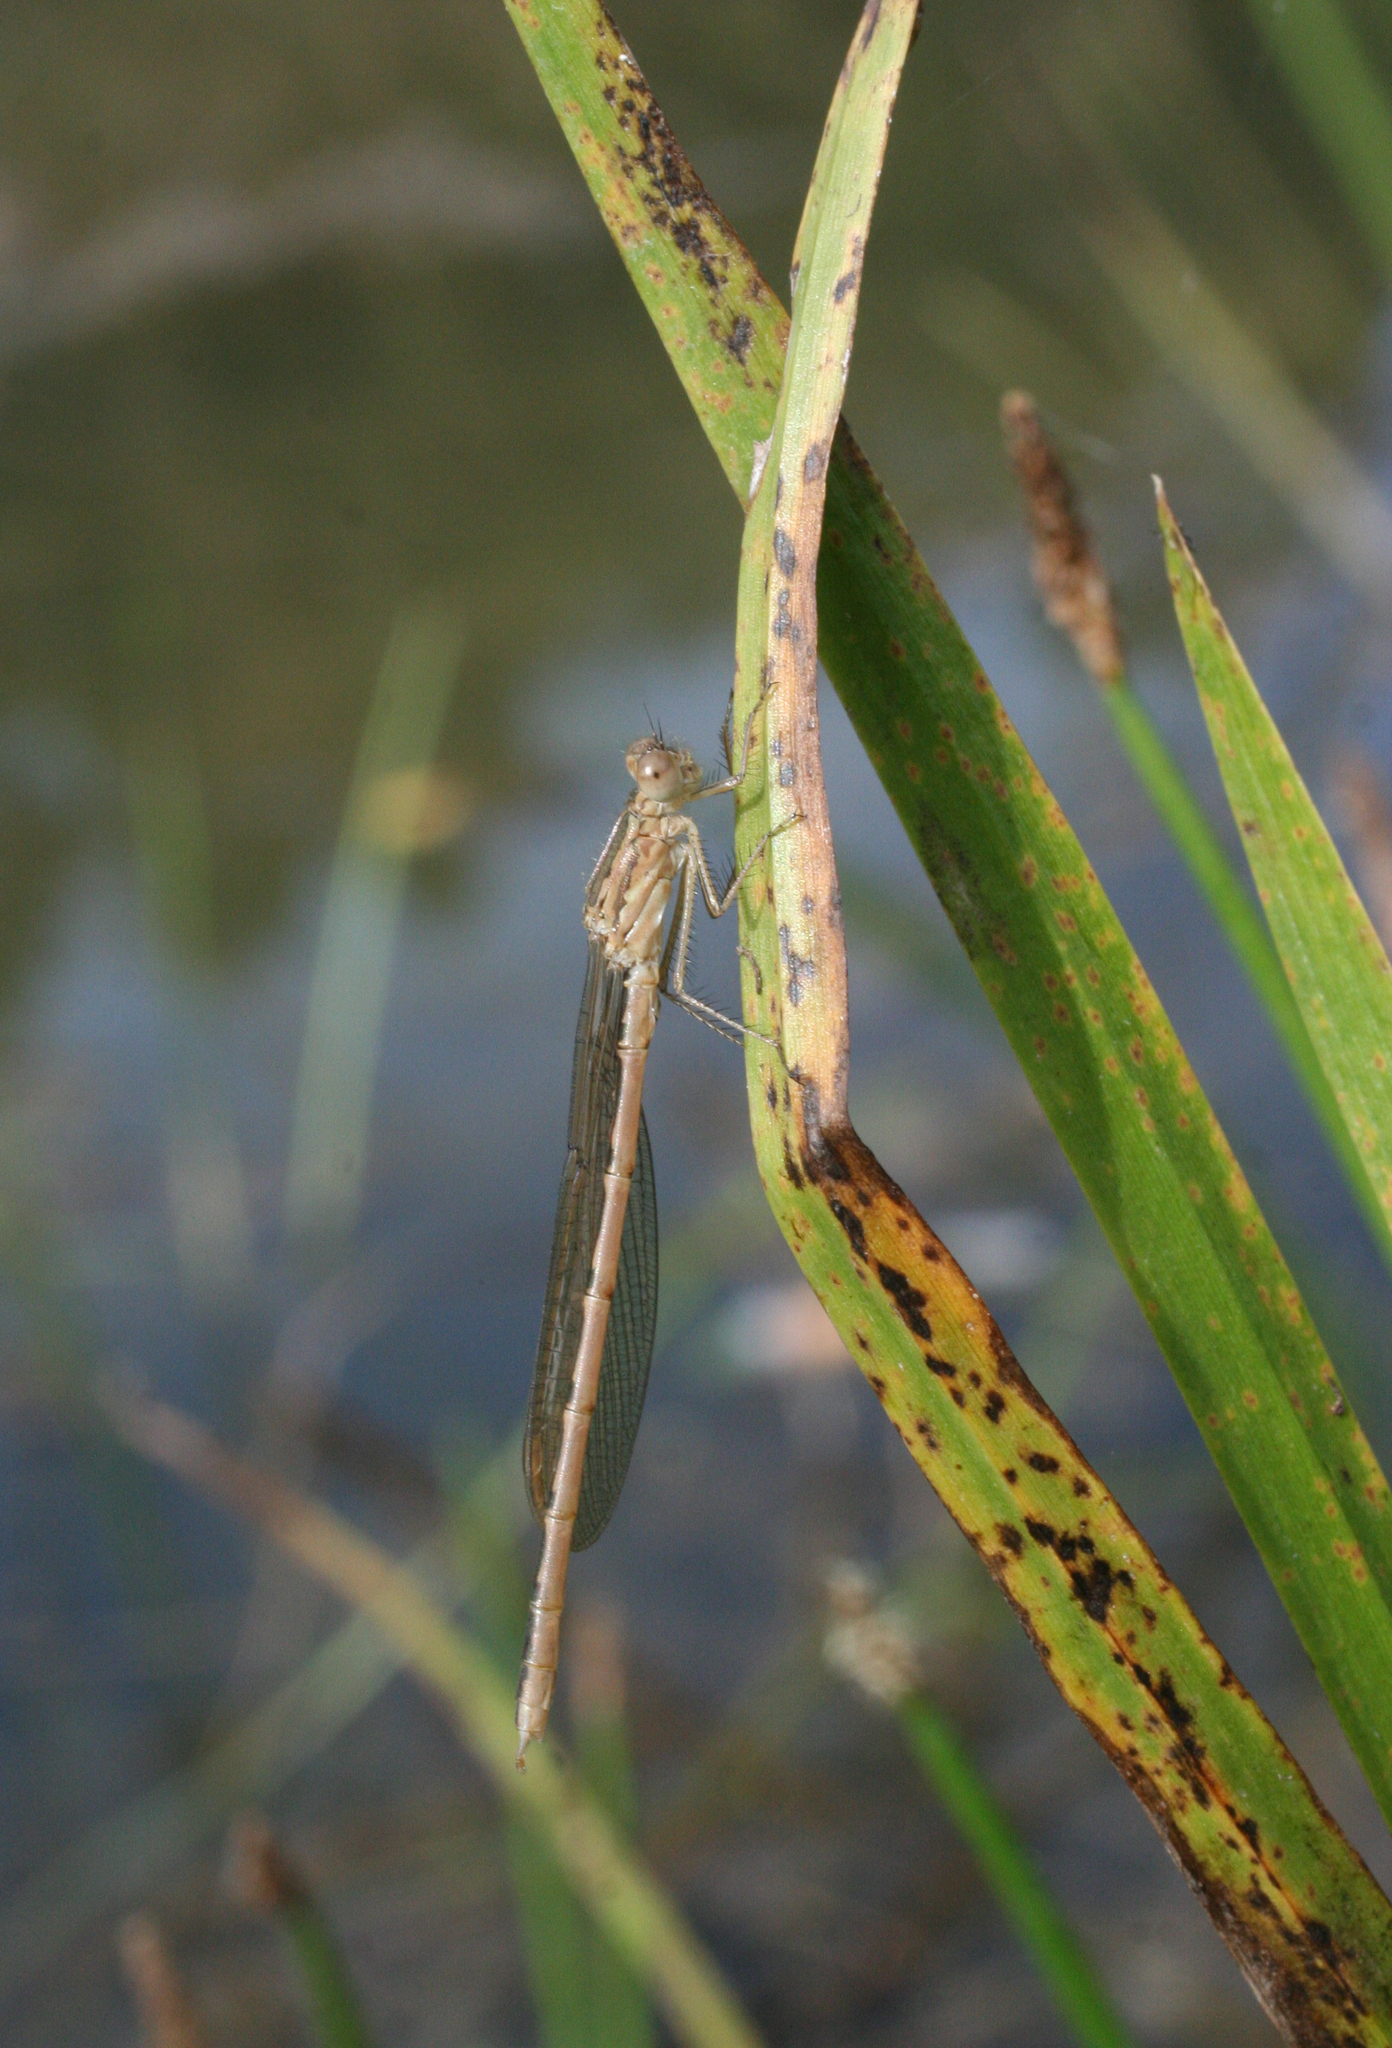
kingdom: Animalia
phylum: Arthropoda
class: Insecta
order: Odonata
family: Lestidae
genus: Sympecma
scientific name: Sympecma paedisca
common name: Siberian winter damsel
